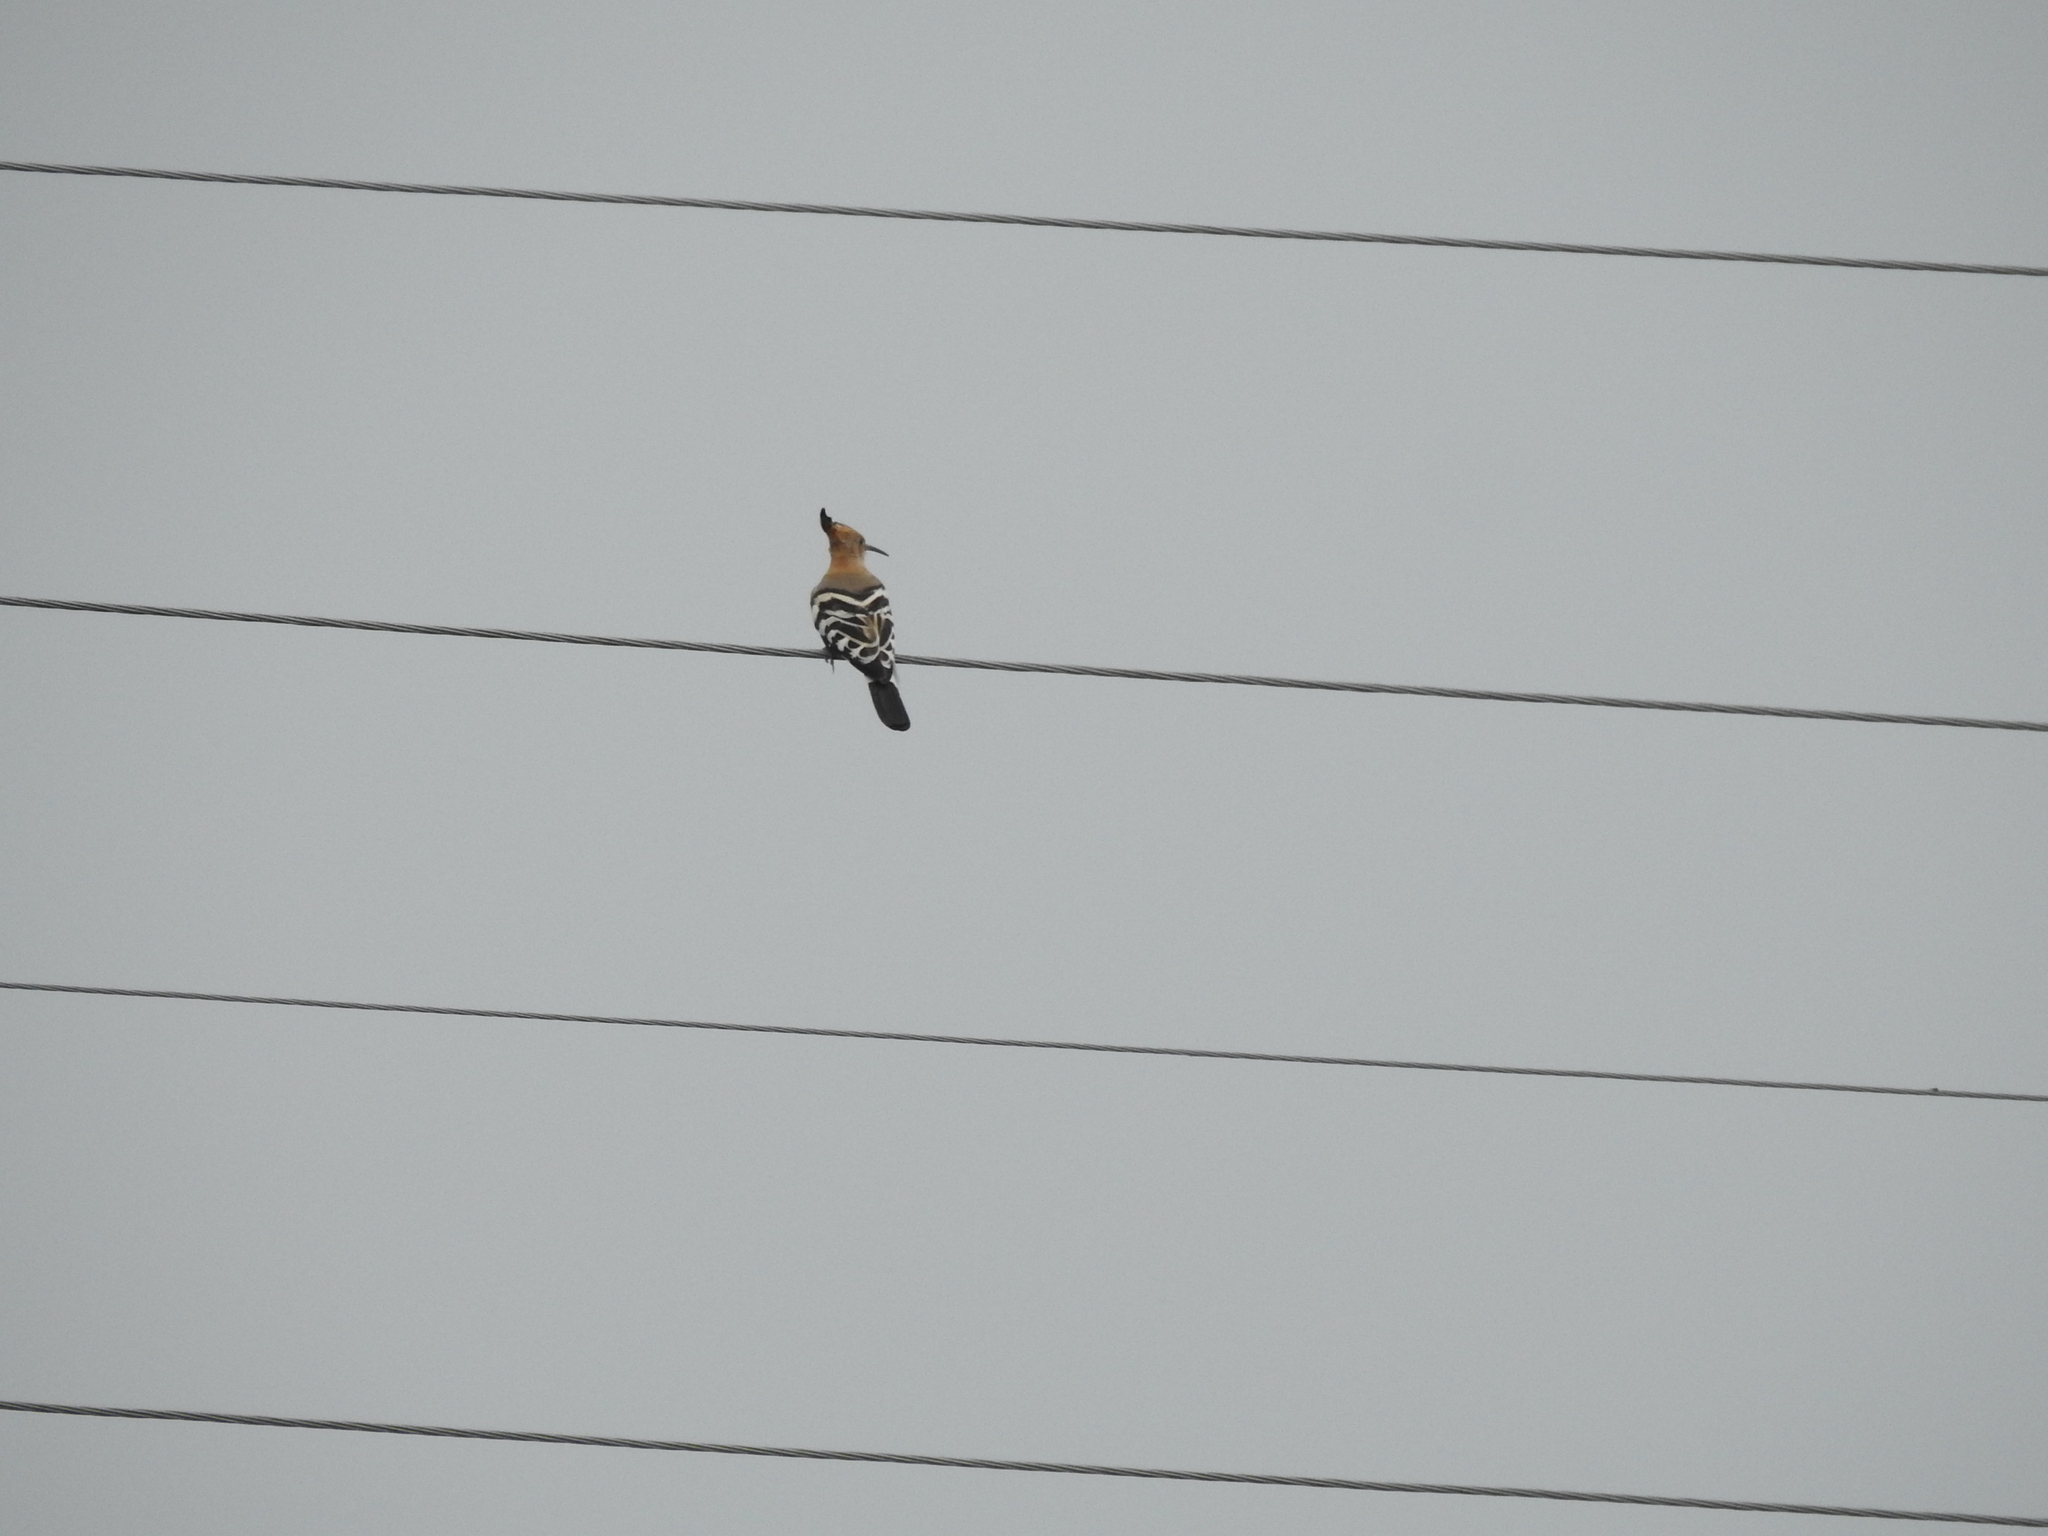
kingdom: Animalia
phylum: Chordata
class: Aves
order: Bucerotiformes
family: Upupidae
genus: Upupa
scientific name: Upupa epops
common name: Eurasian hoopoe
